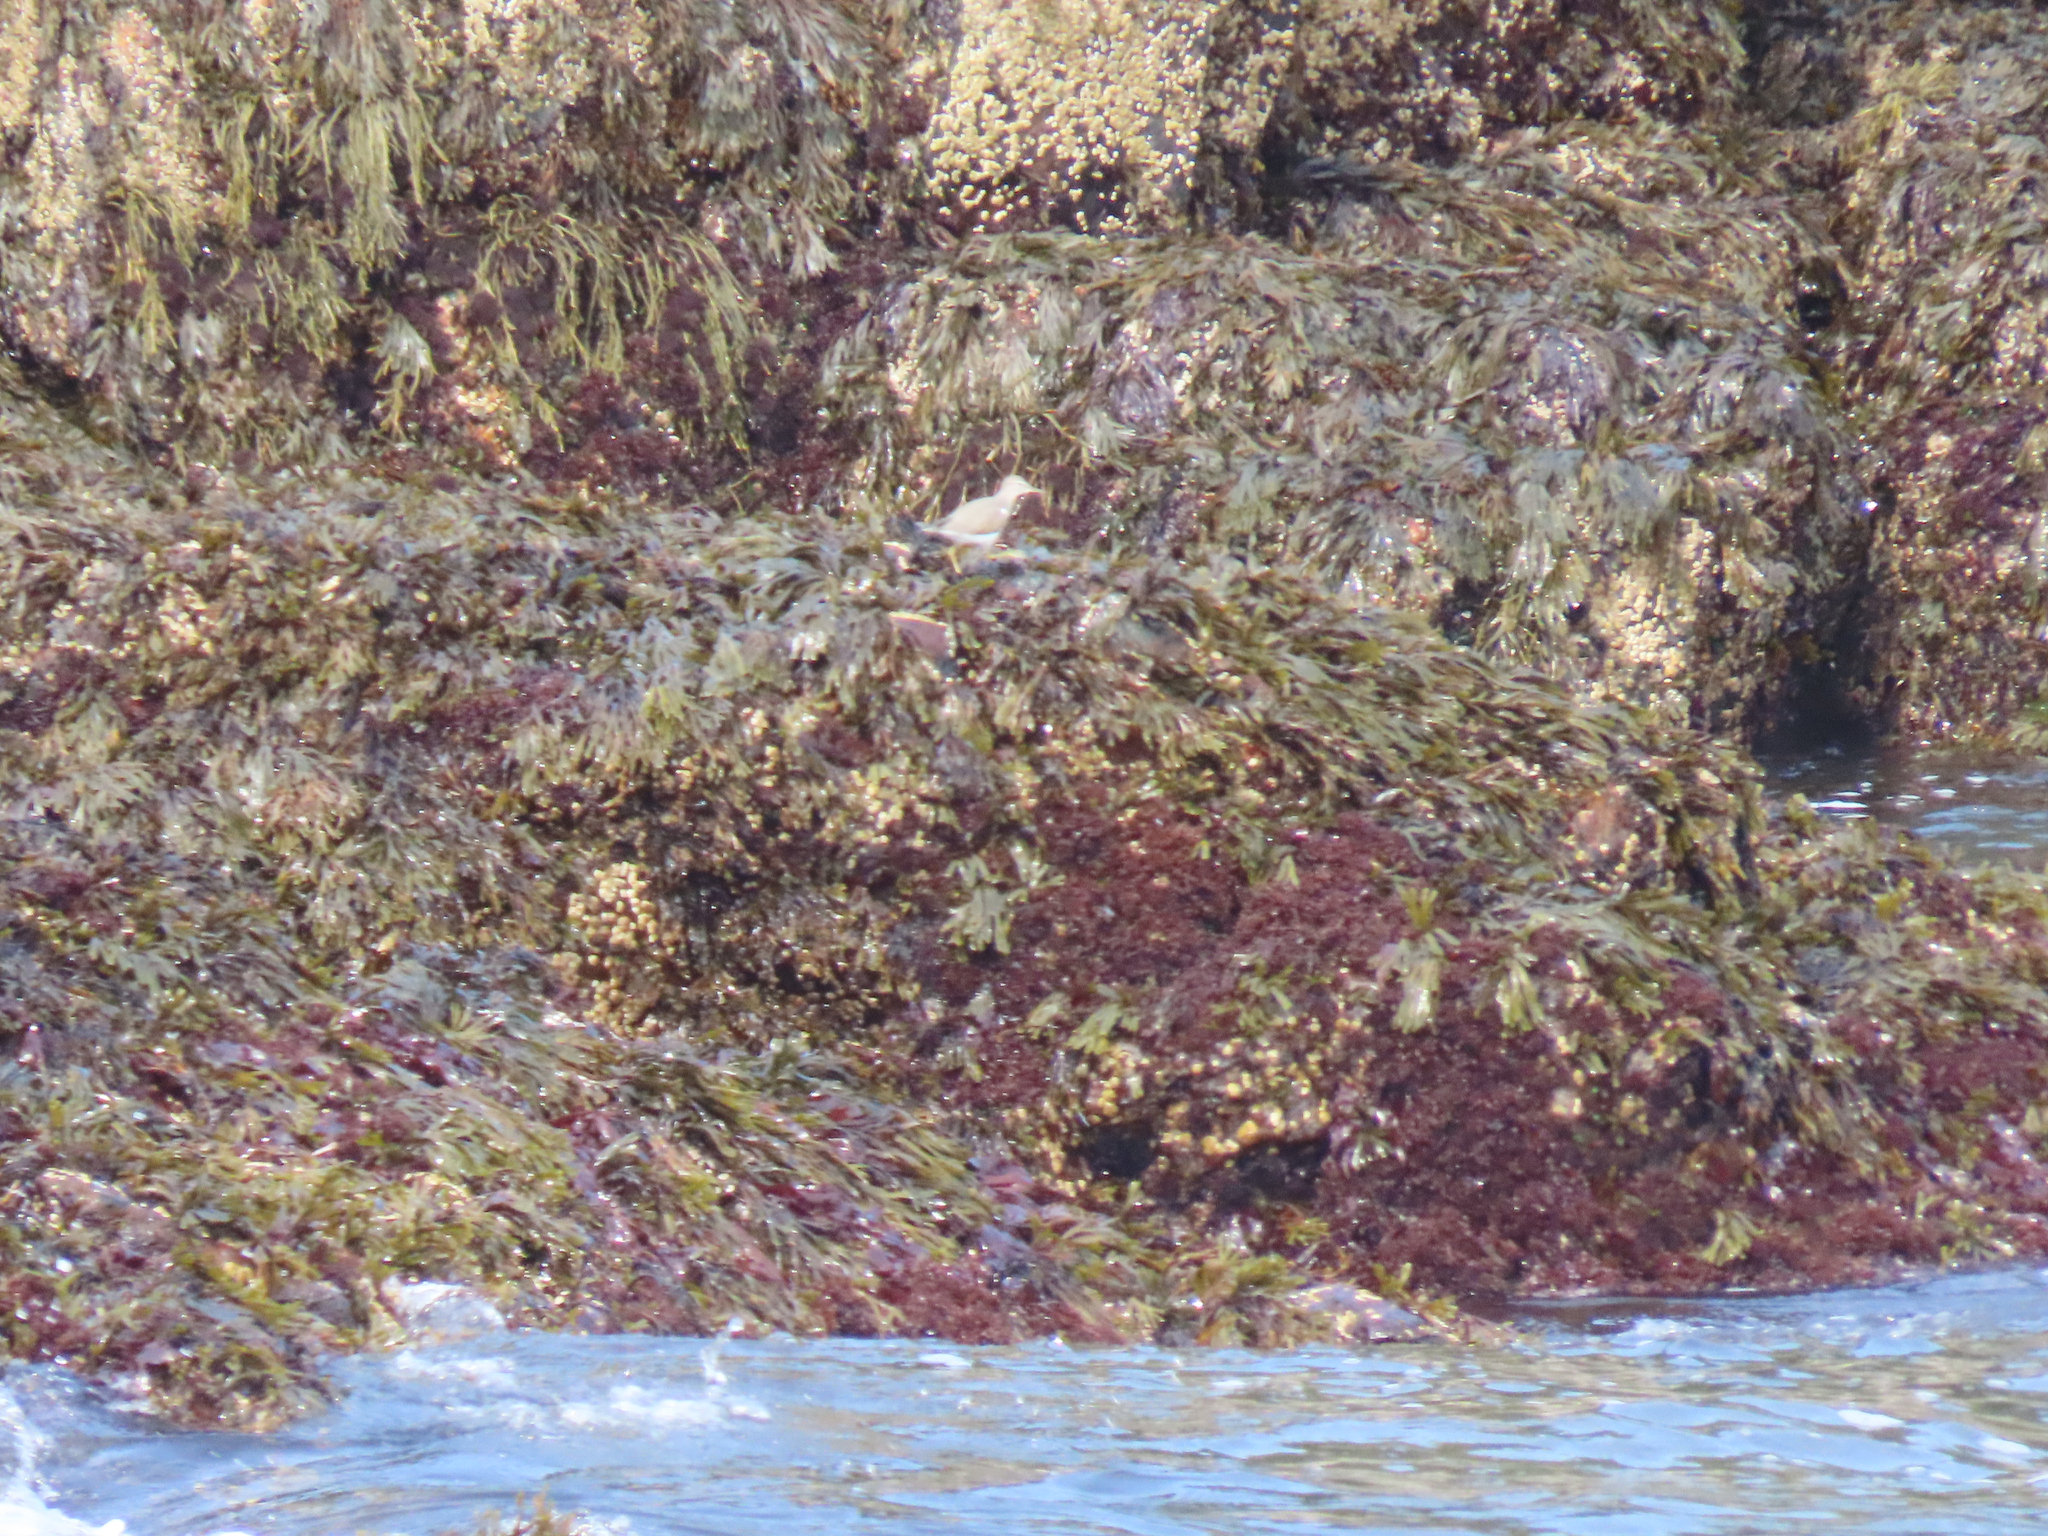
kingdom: Animalia
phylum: Chordata
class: Aves
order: Charadriiformes
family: Scolopacidae
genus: Actitis
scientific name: Actitis macularius
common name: Spotted sandpiper
